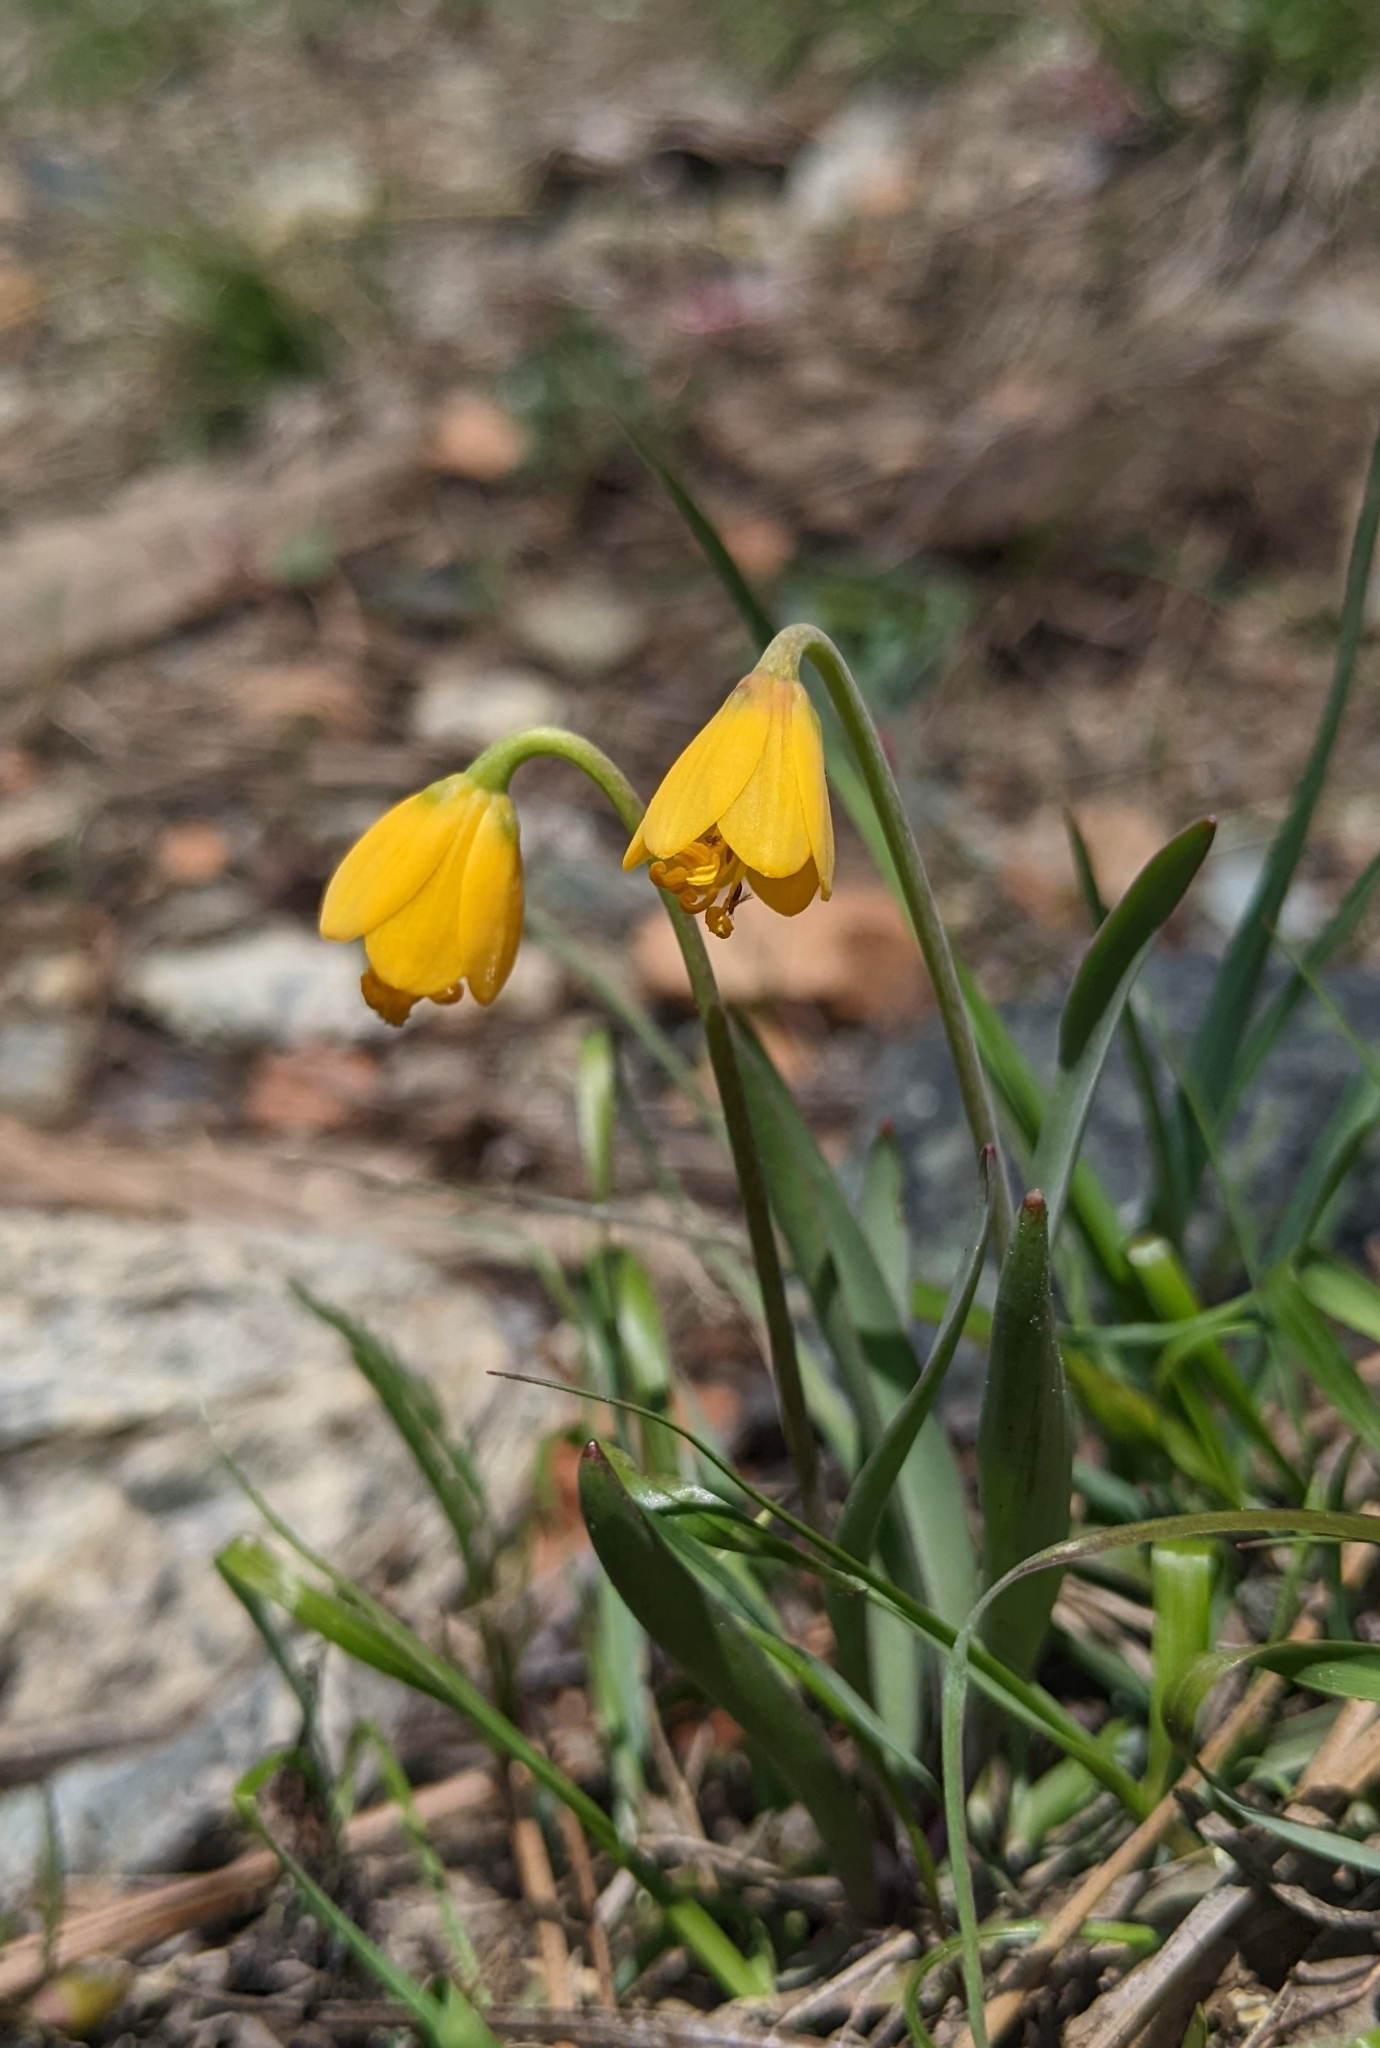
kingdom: Plantae
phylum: Tracheophyta
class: Liliopsida
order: Liliales
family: Liliaceae
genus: Fritillaria
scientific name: Fritillaria pudica
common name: Yellow fritillary
